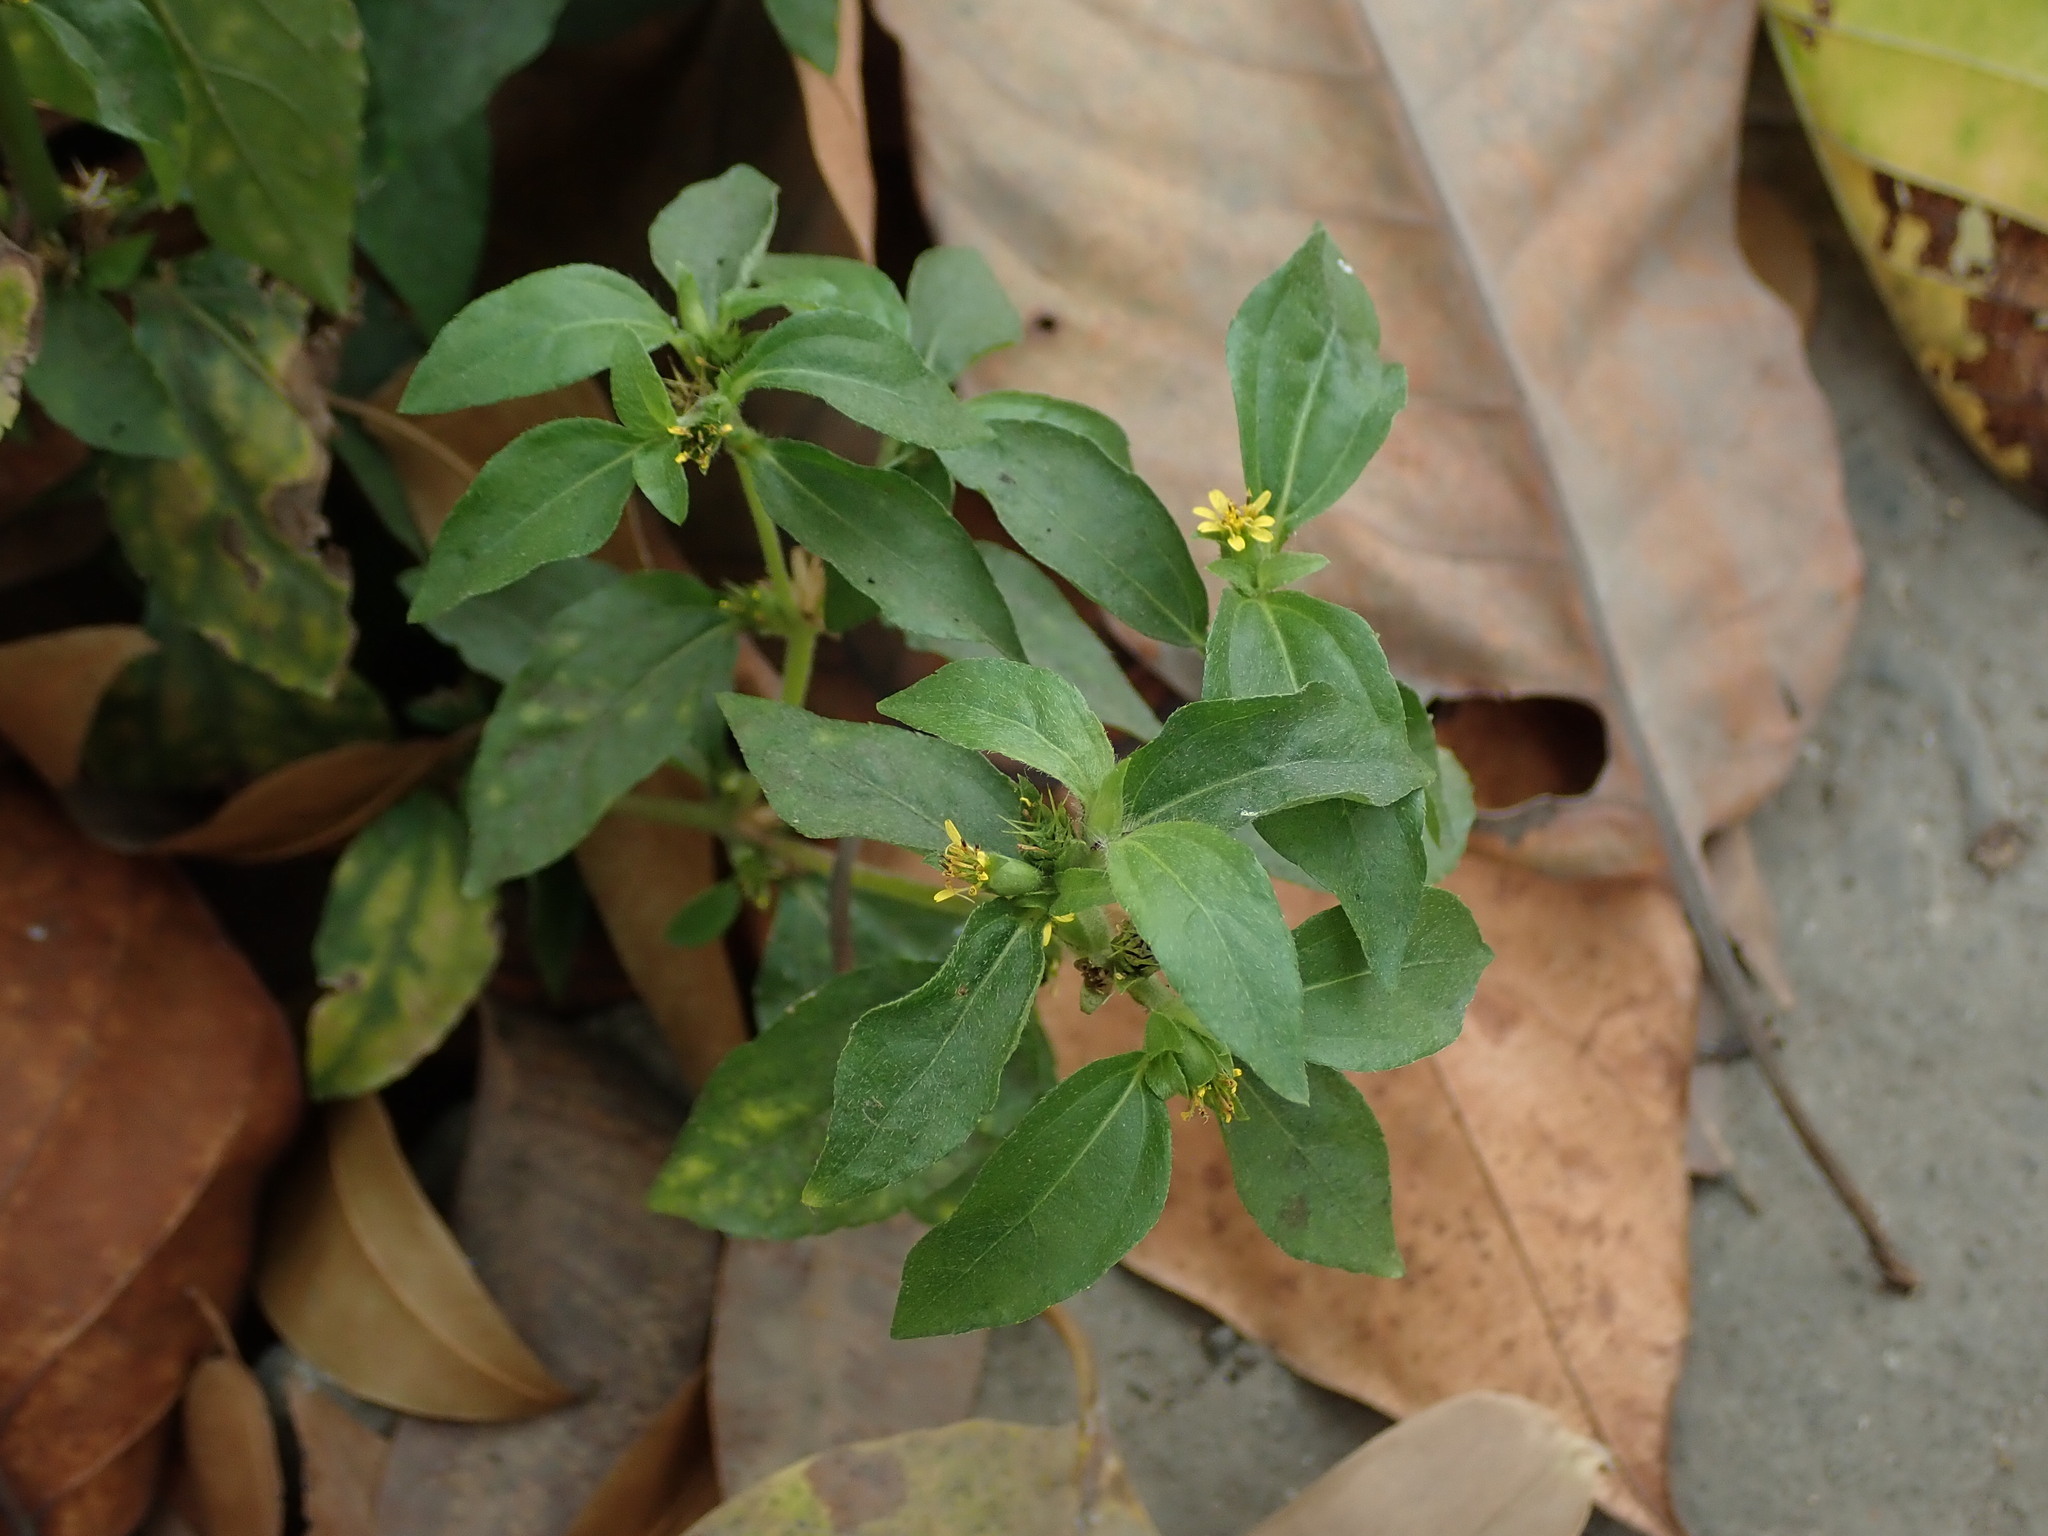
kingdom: Plantae
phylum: Tracheophyta
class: Magnoliopsida
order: Asterales
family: Asteraceae
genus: Synedrella
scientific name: Synedrella nodiflora
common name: Nodeweed
